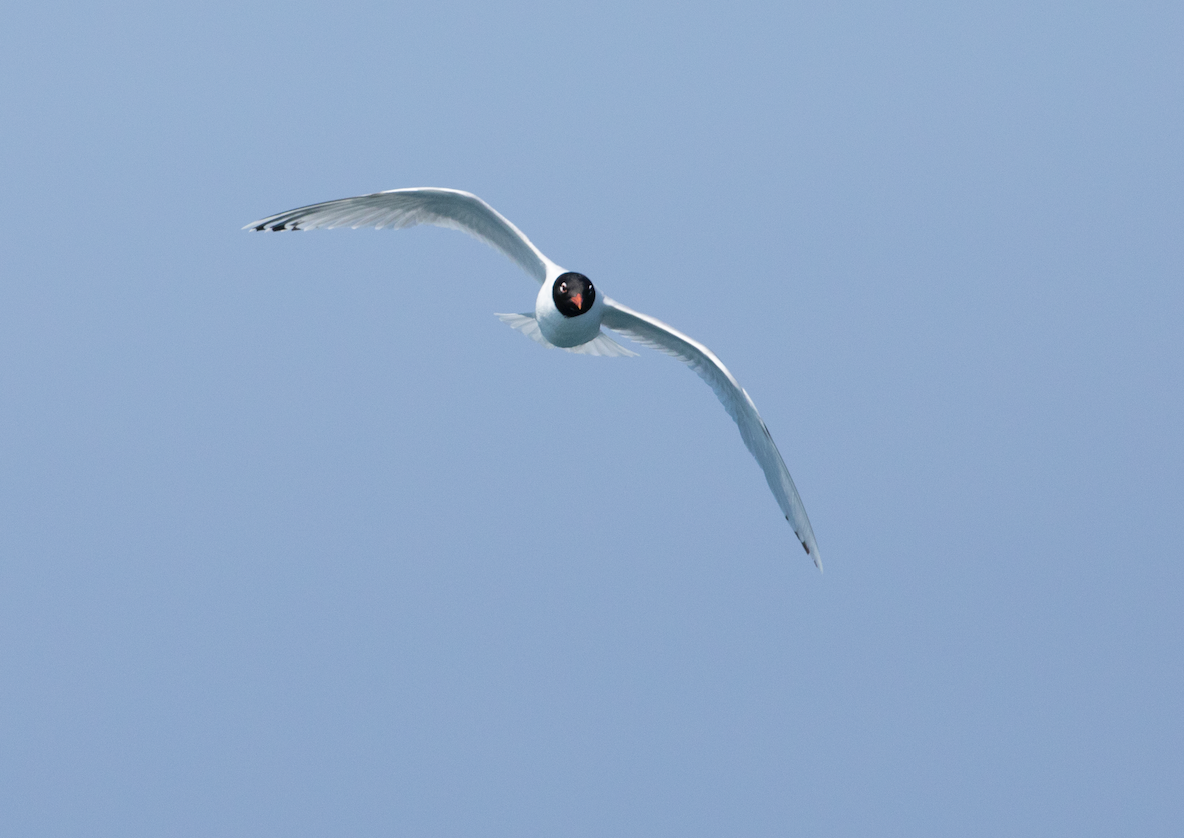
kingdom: Animalia
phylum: Chordata
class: Aves
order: Charadriiformes
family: Laridae
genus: Ichthyaetus
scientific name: Ichthyaetus melanocephalus
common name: Mediterranean gull
